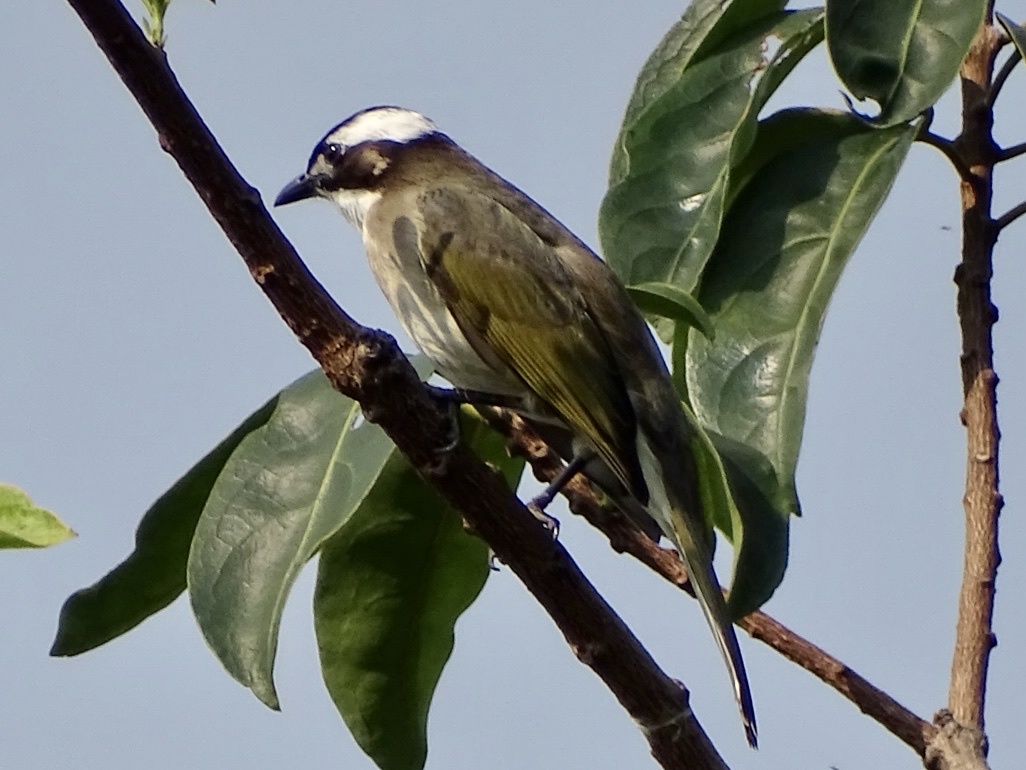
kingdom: Animalia
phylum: Chordata
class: Aves
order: Passeriformes
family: Pycnonotidae
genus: Pycnonotus
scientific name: Pycnonotus sinensis
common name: Light-vented bulbul
